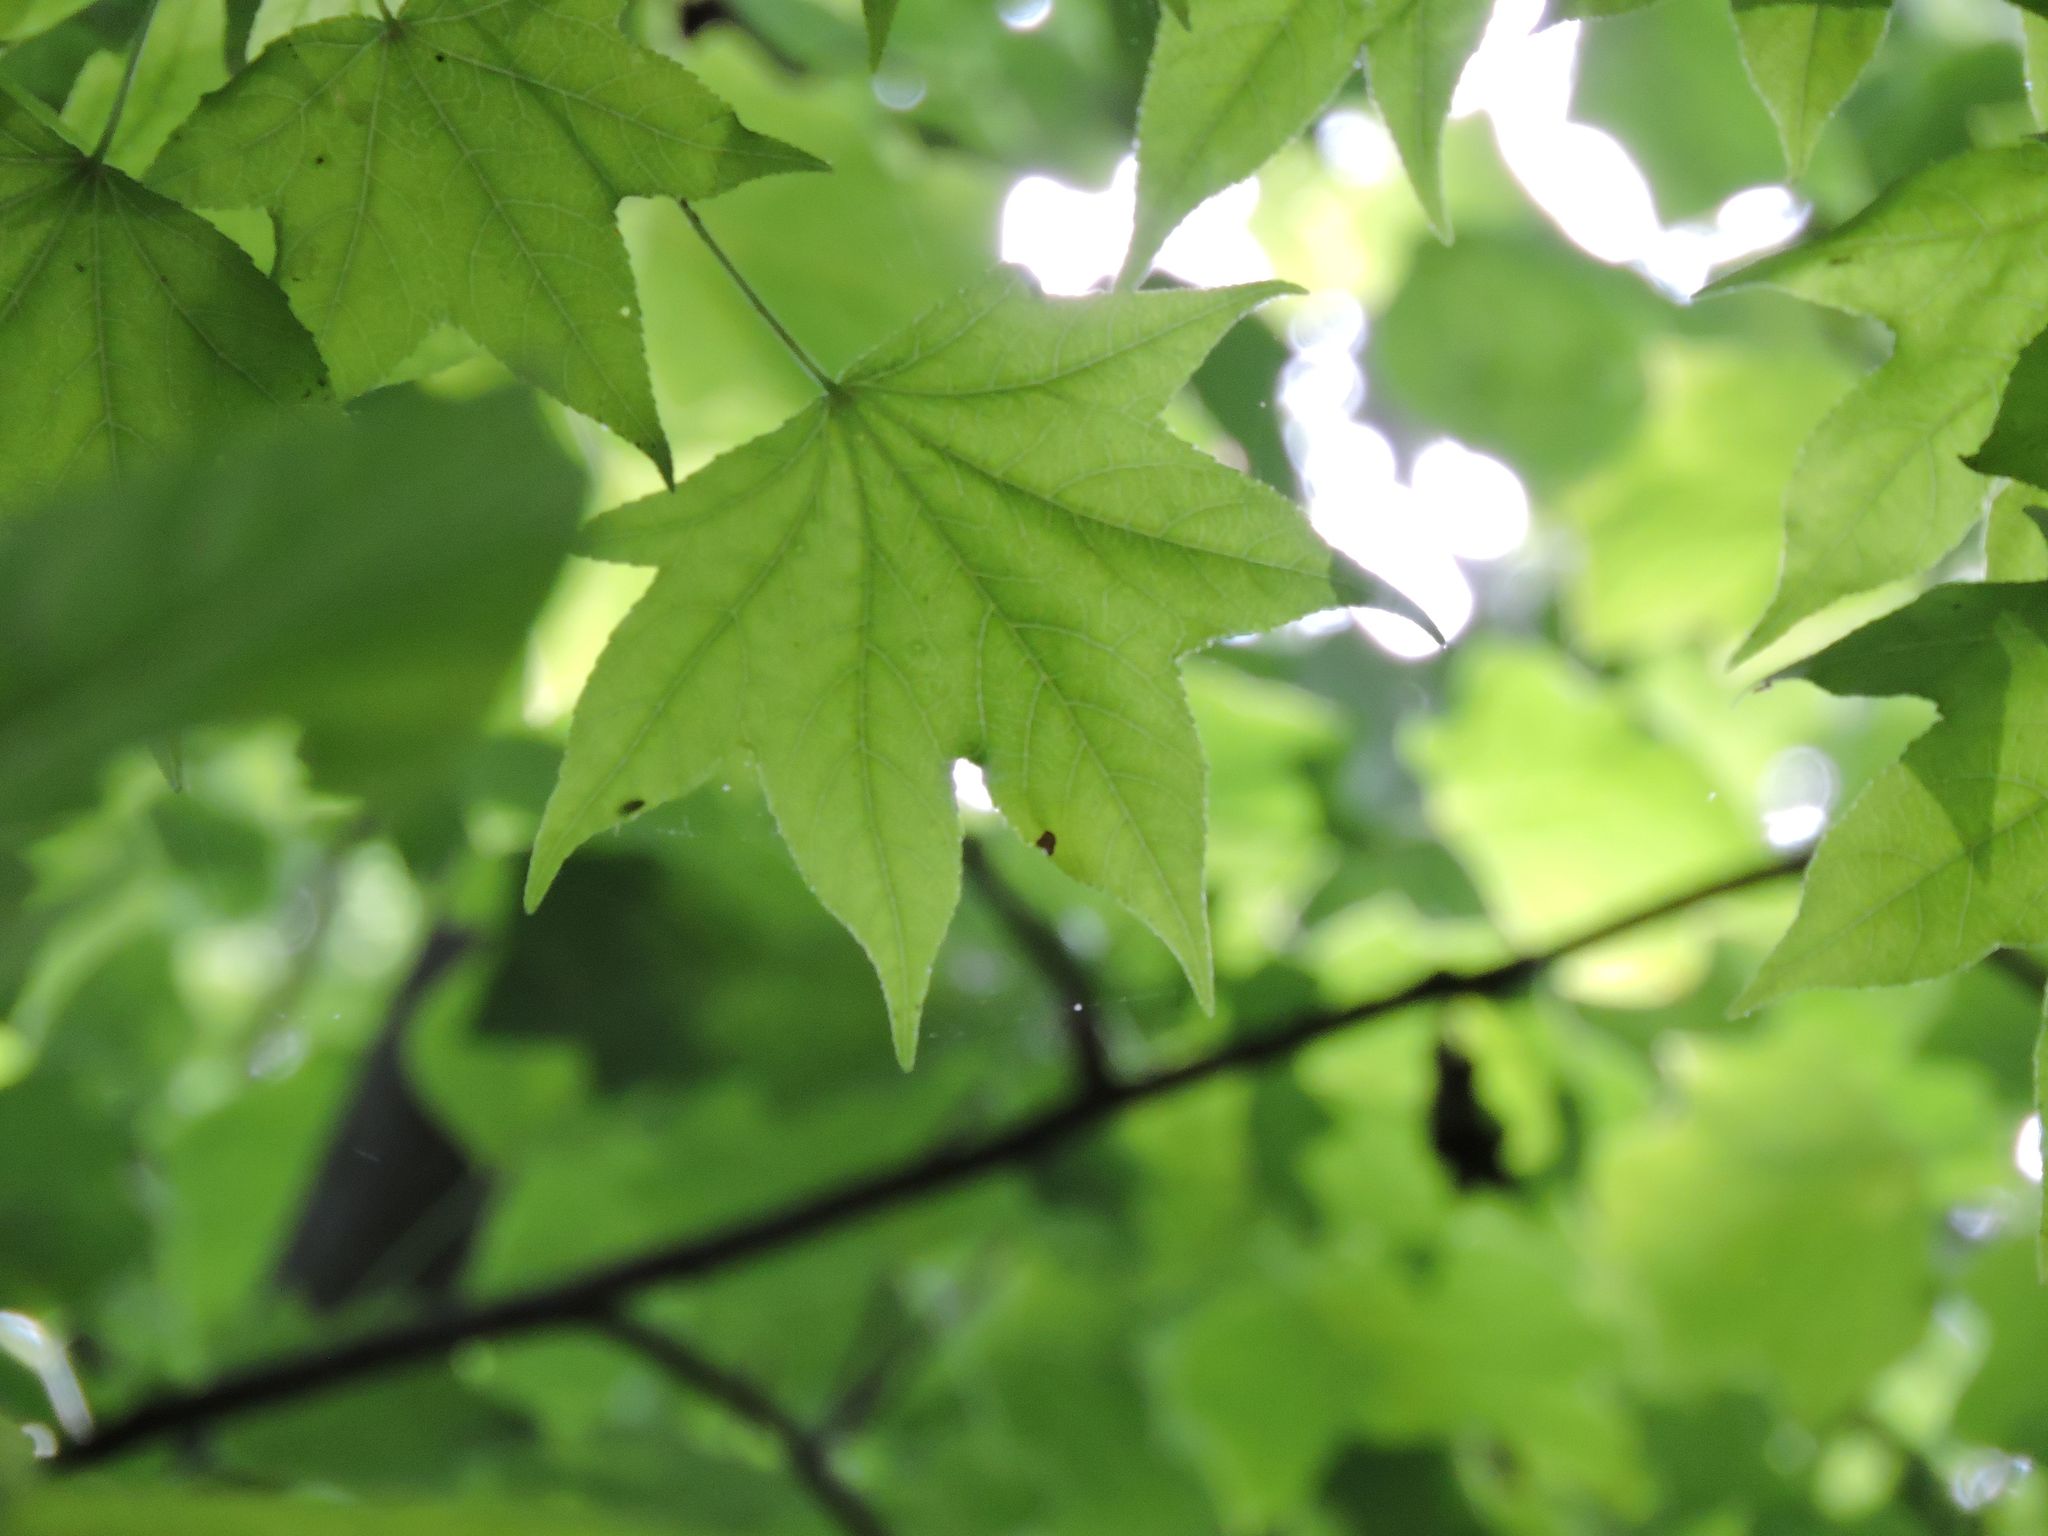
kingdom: Plantae
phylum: Tracheophyta
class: Magnoliopsida
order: Saxifragales
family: Altingiaceae
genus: Liquidambar
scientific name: Liquidambar styraciflua
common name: Sweet gum
